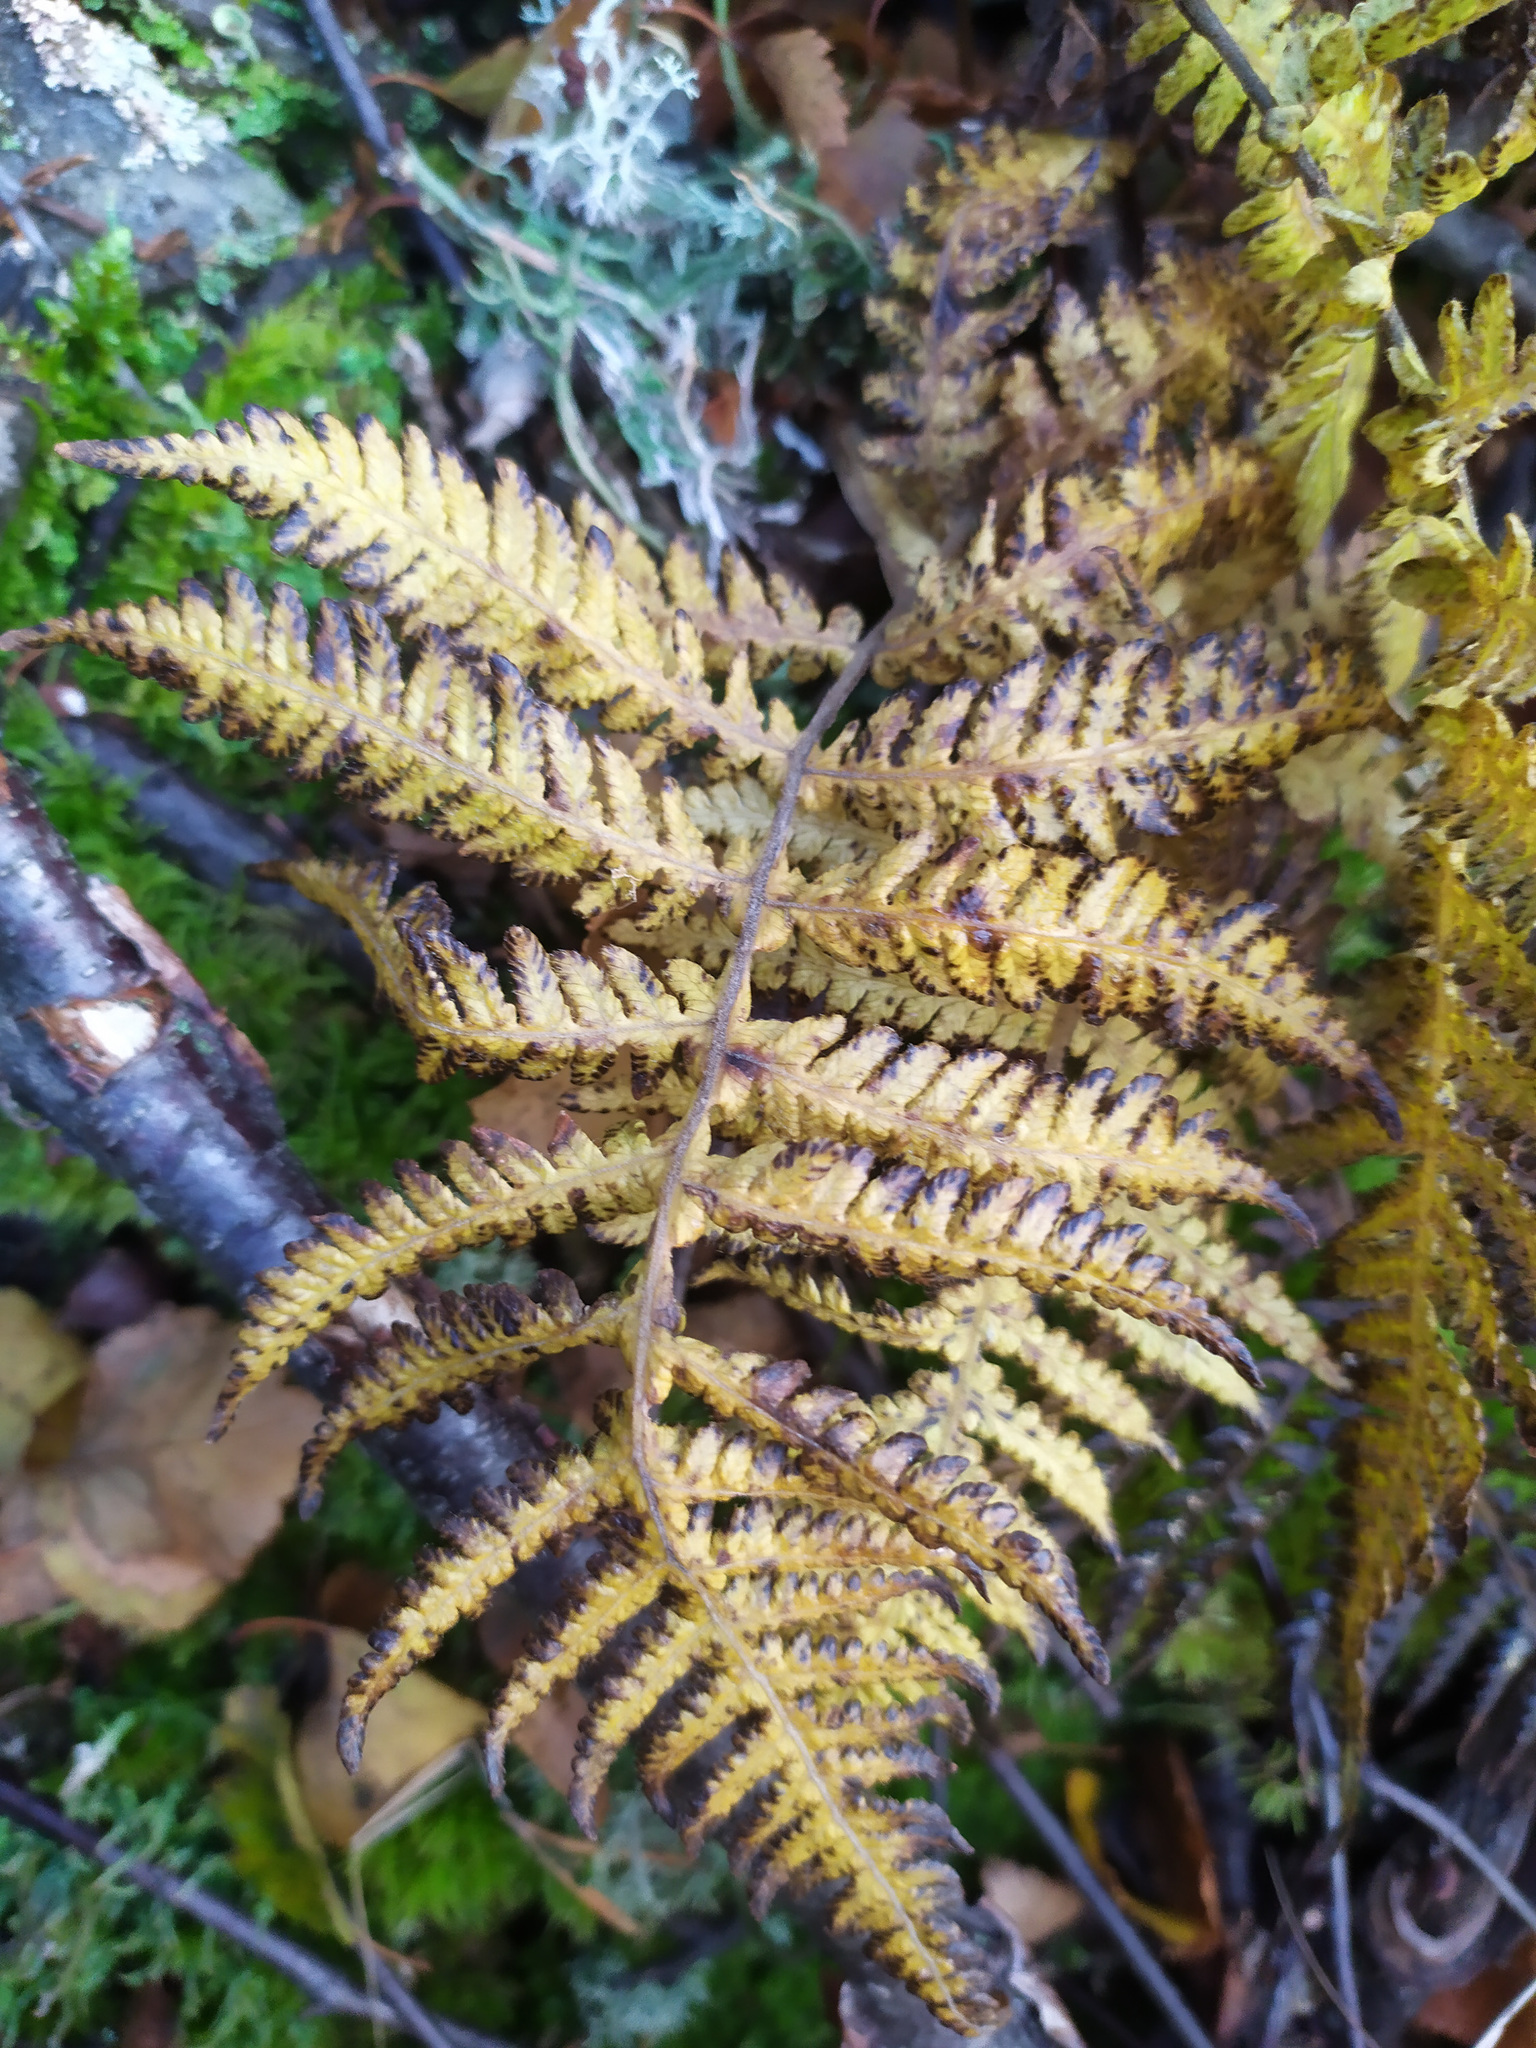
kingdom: Plantae
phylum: Tracheophyta
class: Polypodiopsida
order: Polypodiales
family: Thelypteridaceae
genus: Phegopteris
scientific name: Phegopteris connectilis
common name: Beech fern
